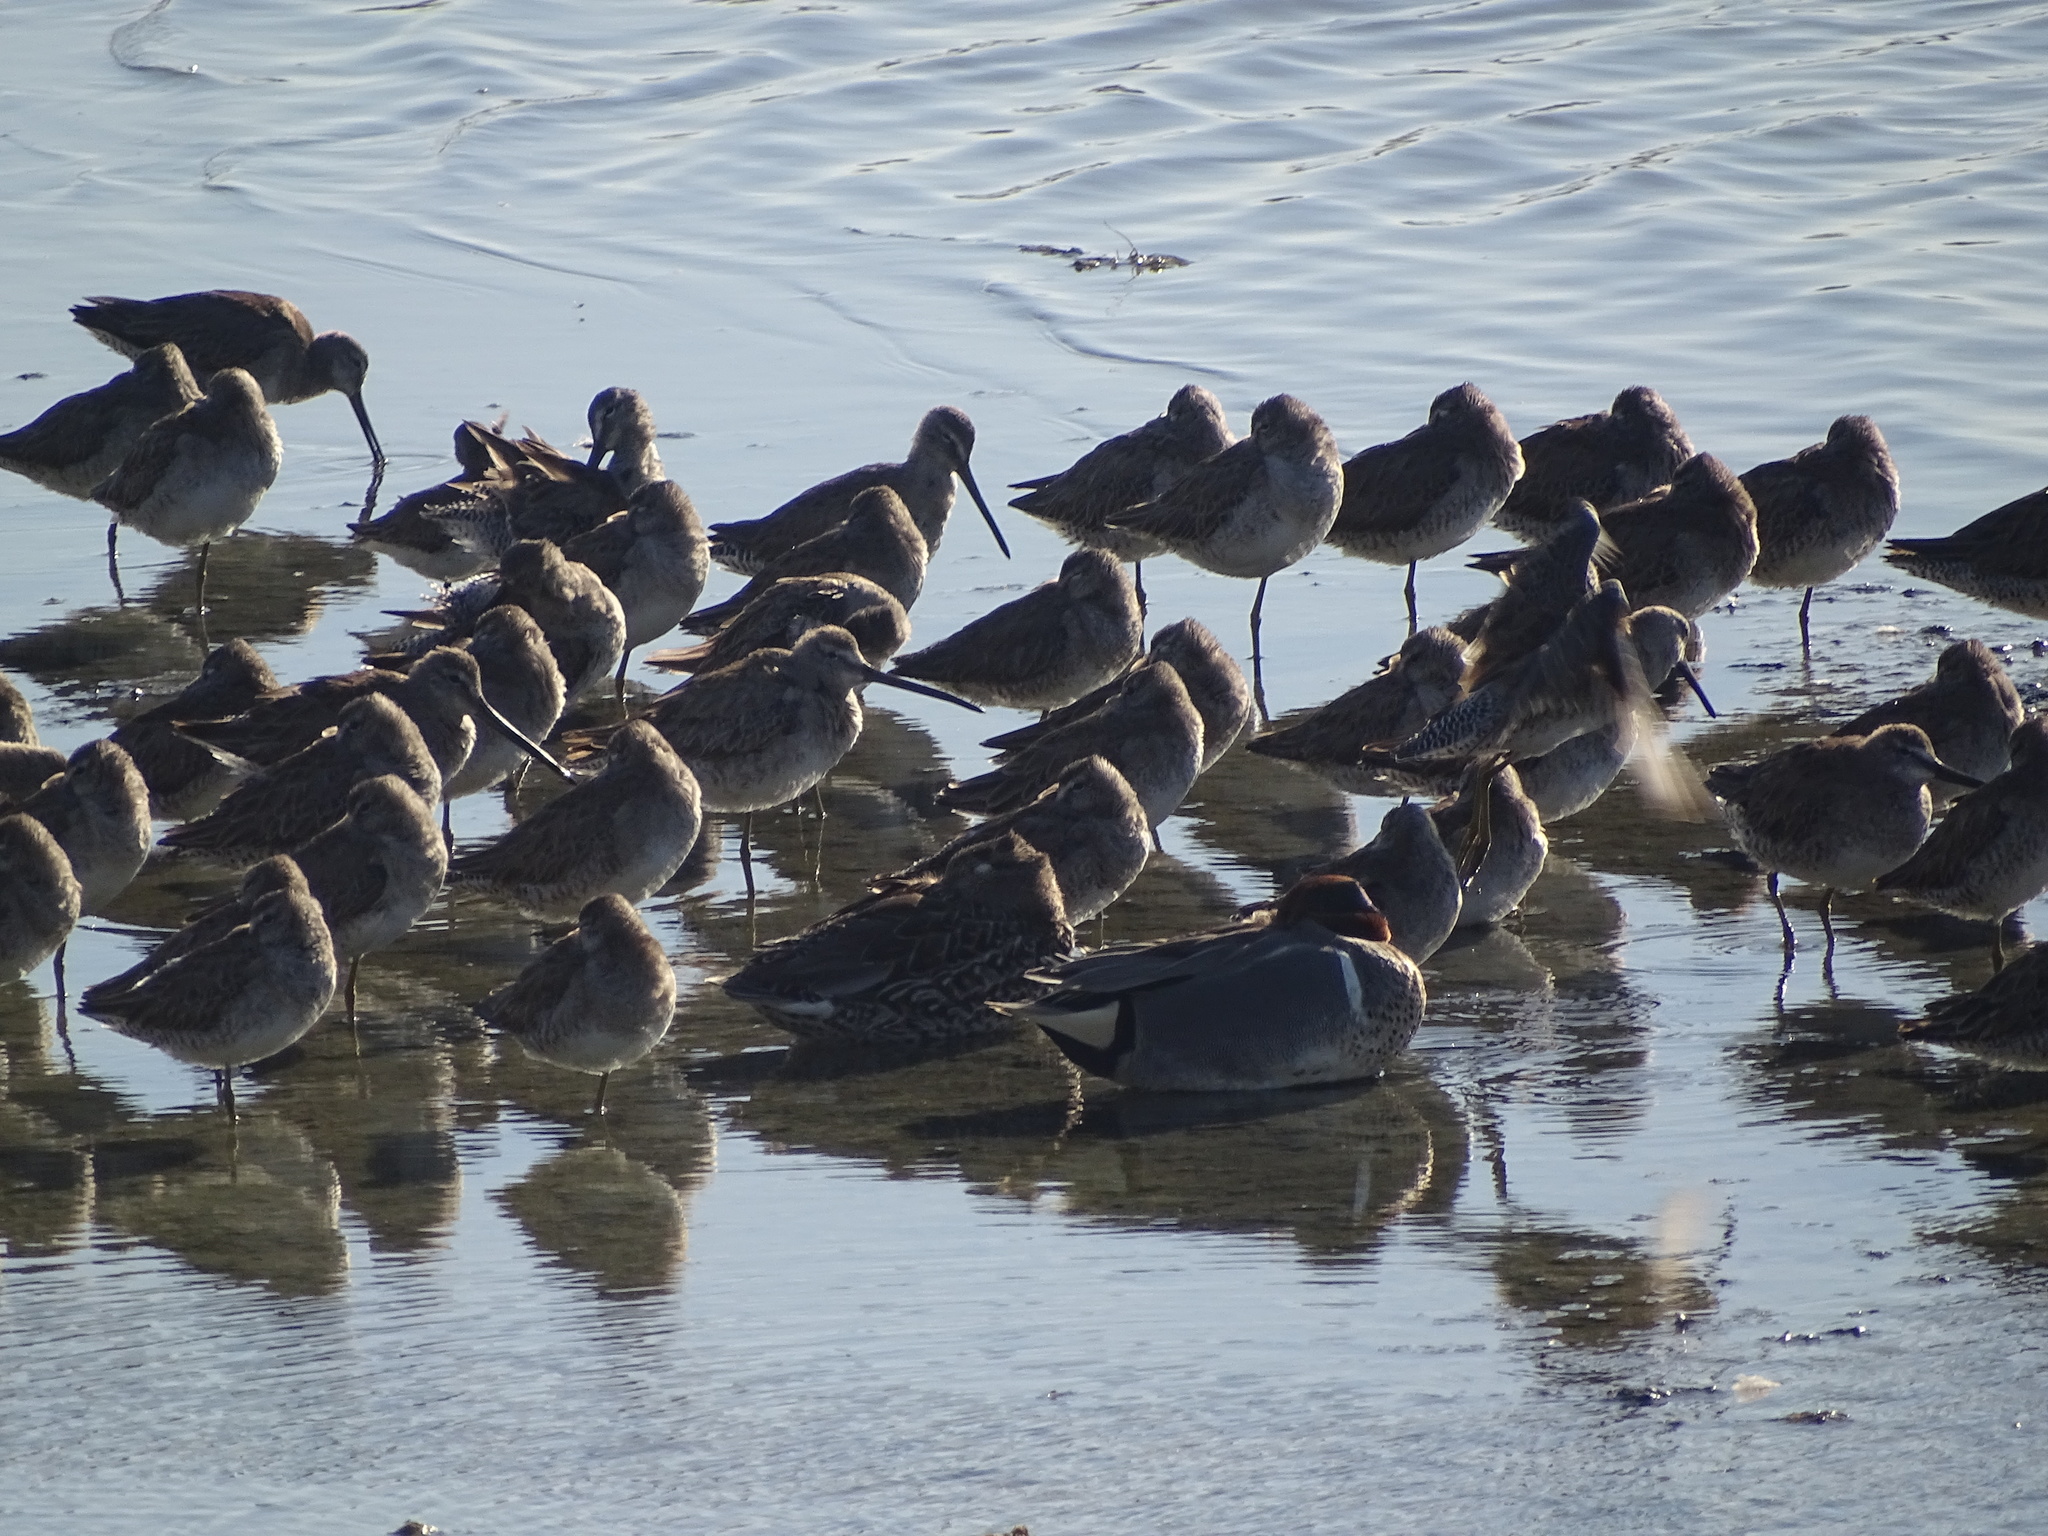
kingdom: Animalia
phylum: Chordata
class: Aves
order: Charadriiformes
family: Scolopacidae
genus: Limnodromus
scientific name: Limnodromus scolopaceus
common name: Long-billed dowitcher
